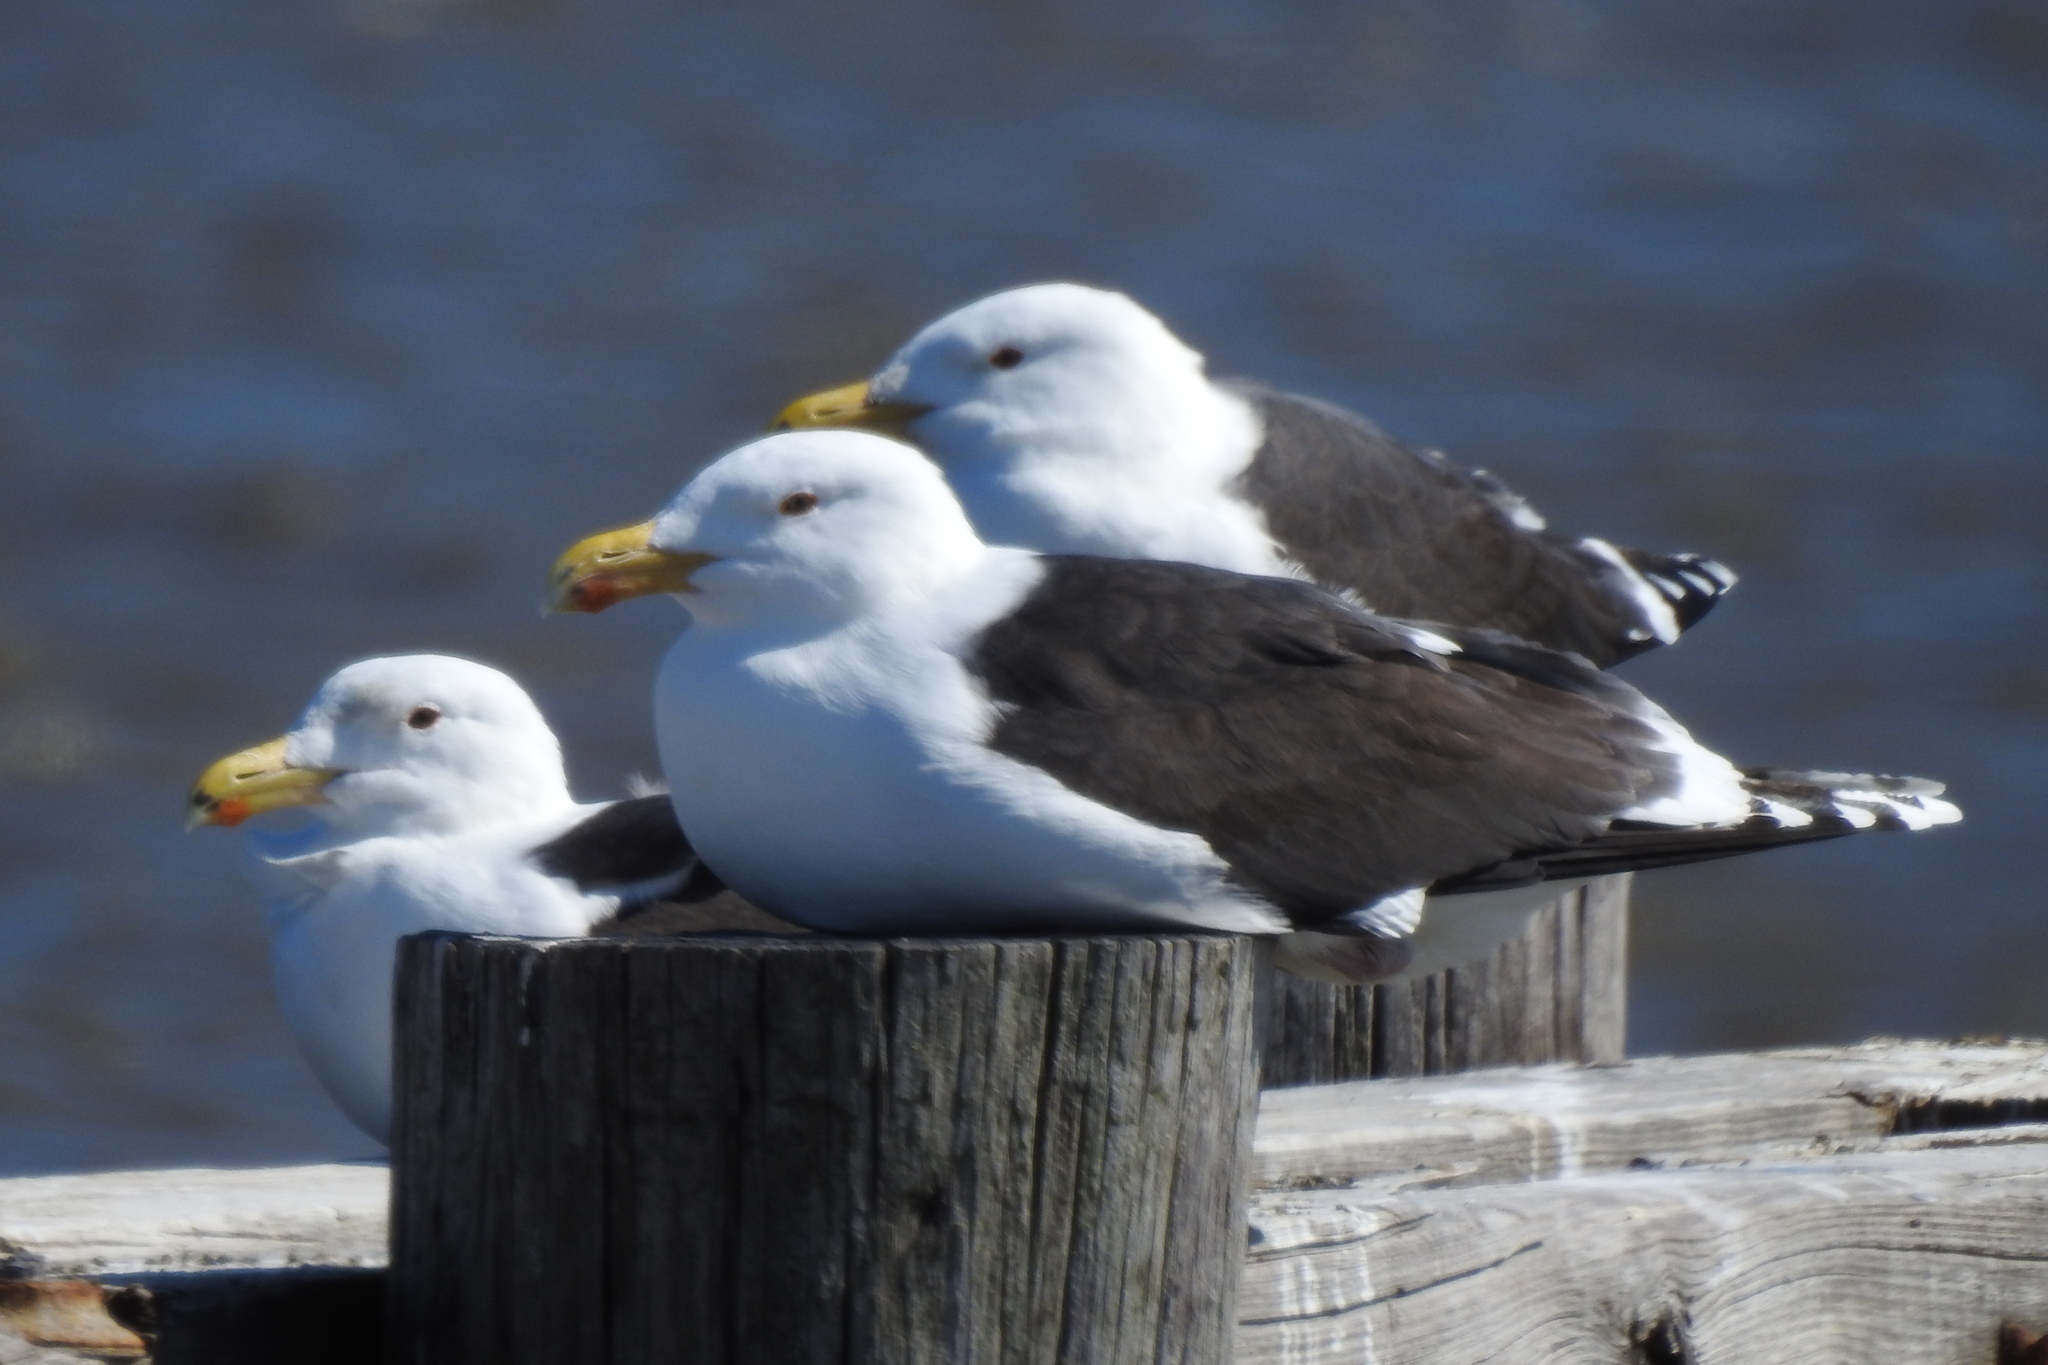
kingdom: Animalia
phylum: Chordata
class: Aves
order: Charadriiformes
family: Laridae
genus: Larus
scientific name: Larus marinus
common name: Great black-backed gull
